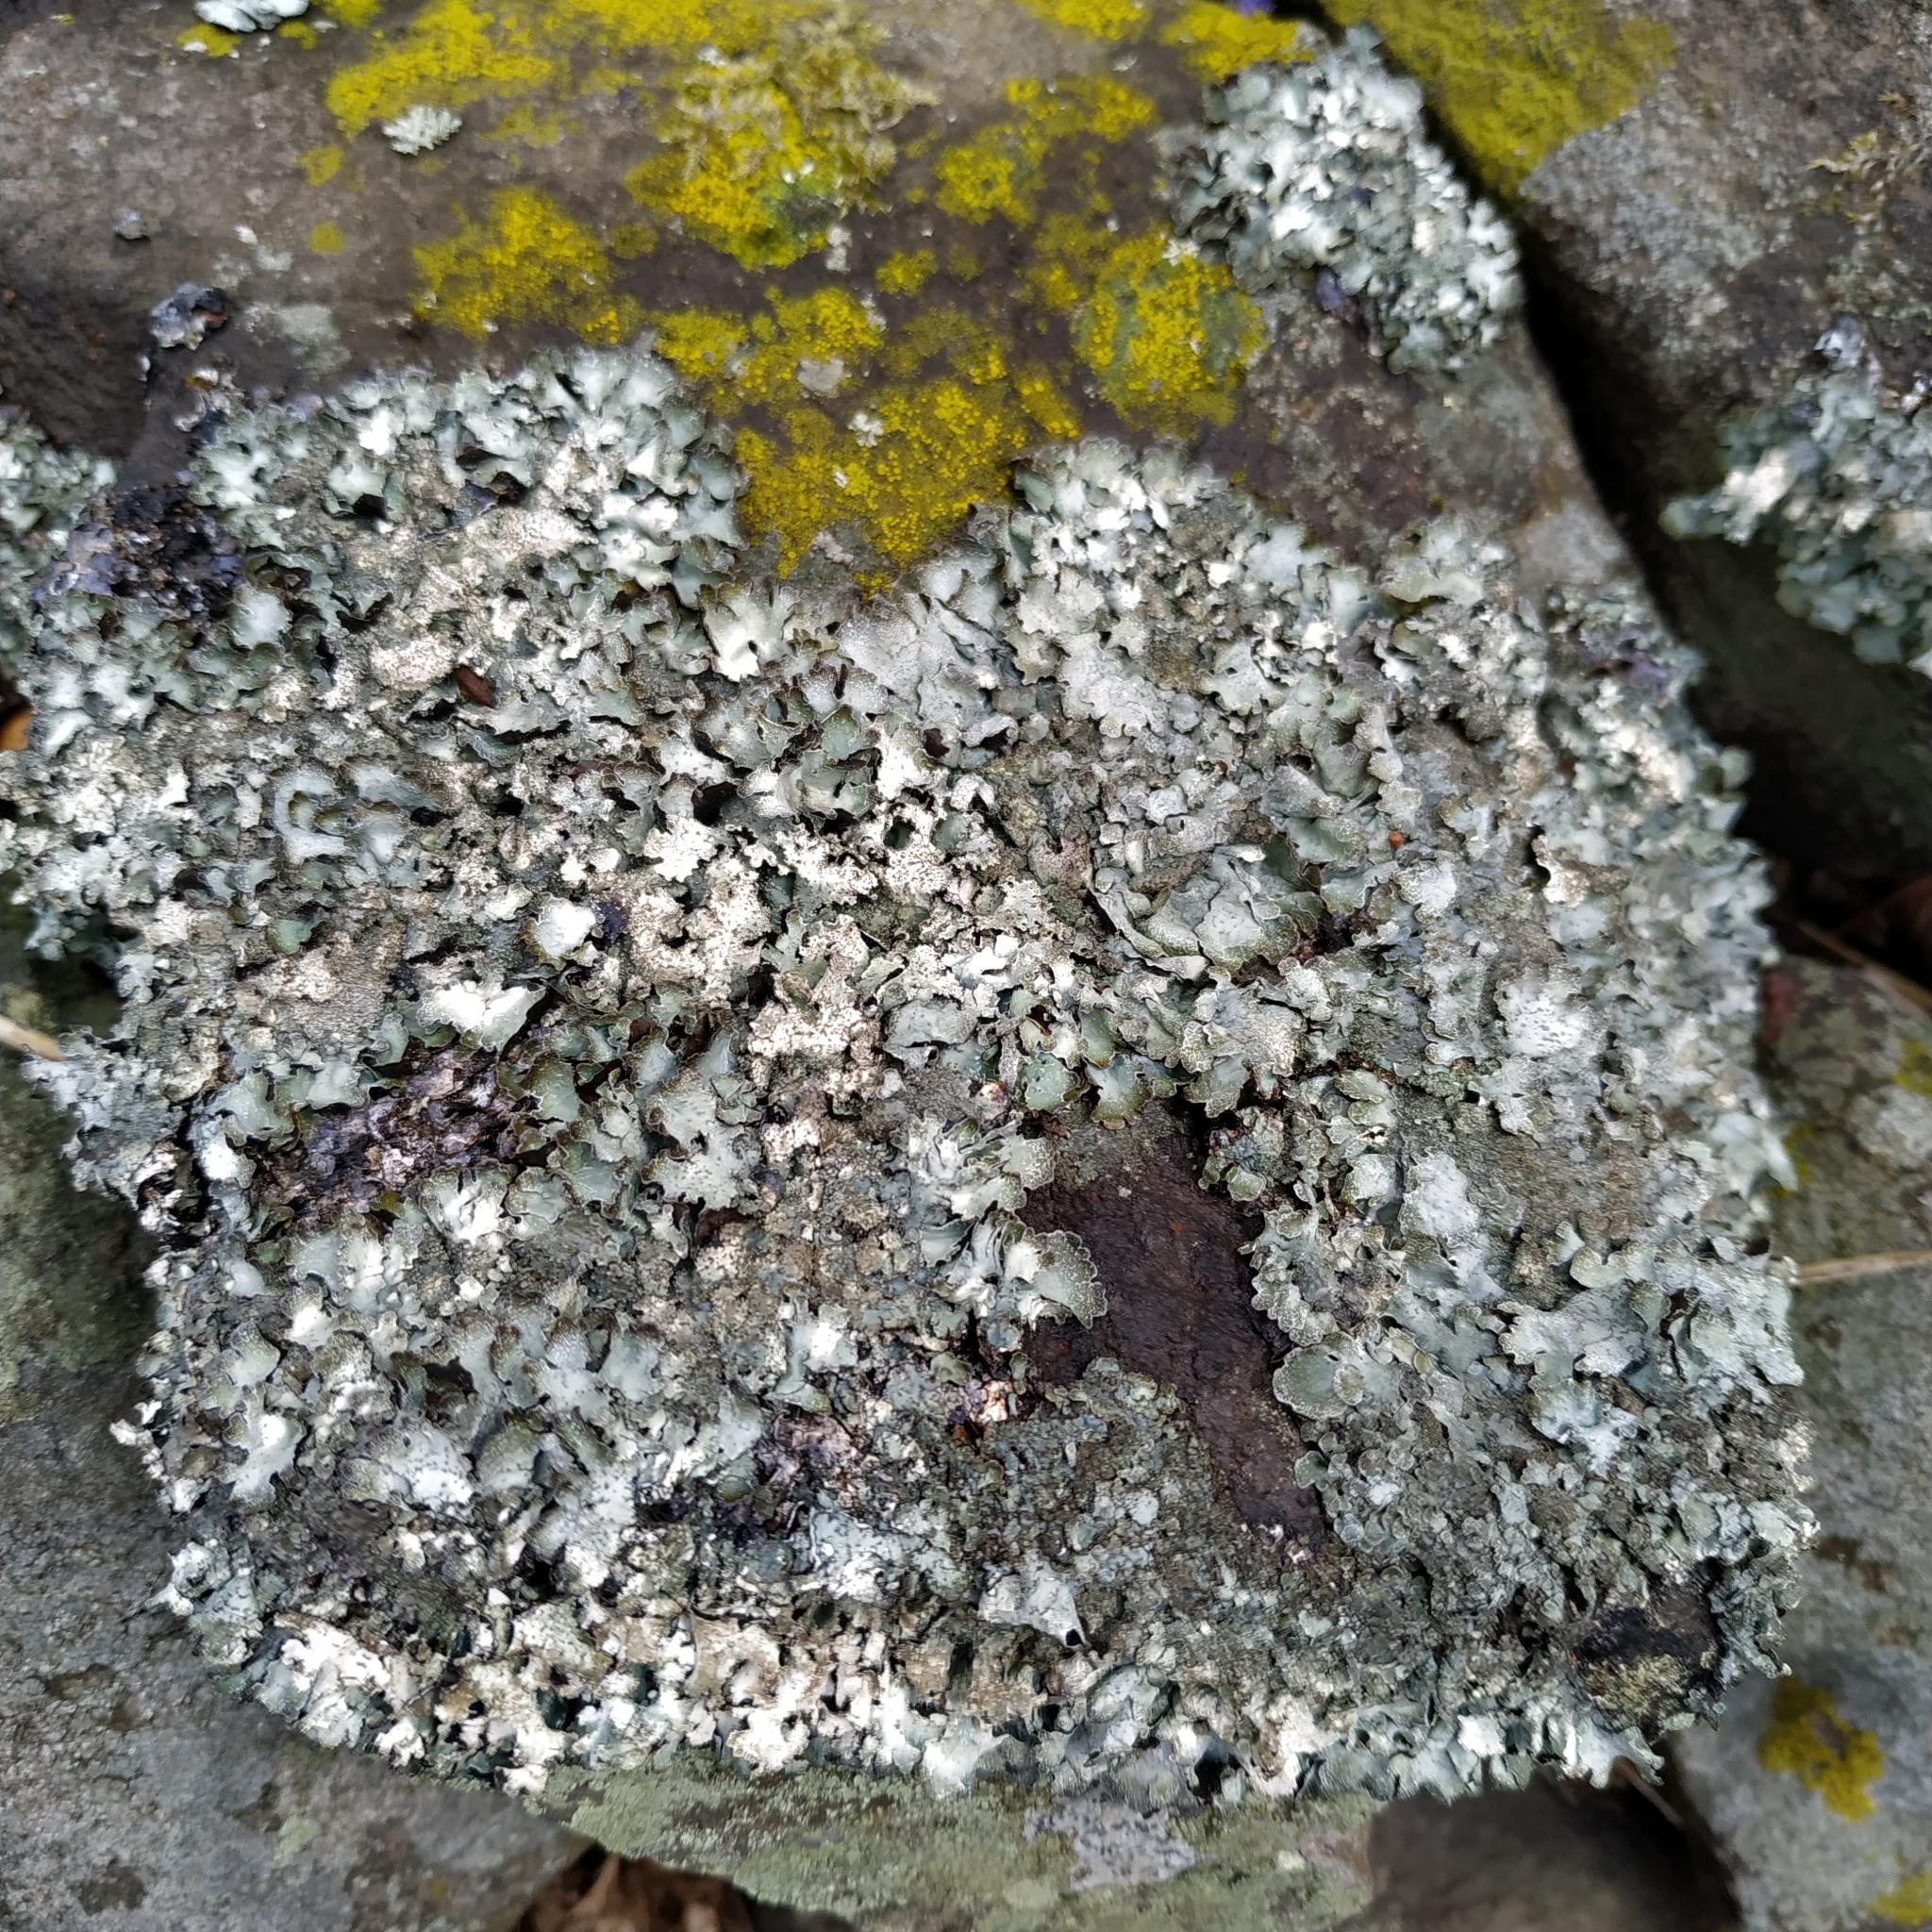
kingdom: Fungi
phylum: Ascomycota
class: Lecanoromycetes
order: Lecanorales
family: Parmeliaceae
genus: Parmelia
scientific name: Parmelia saxatilis
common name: Salted shield lichen
